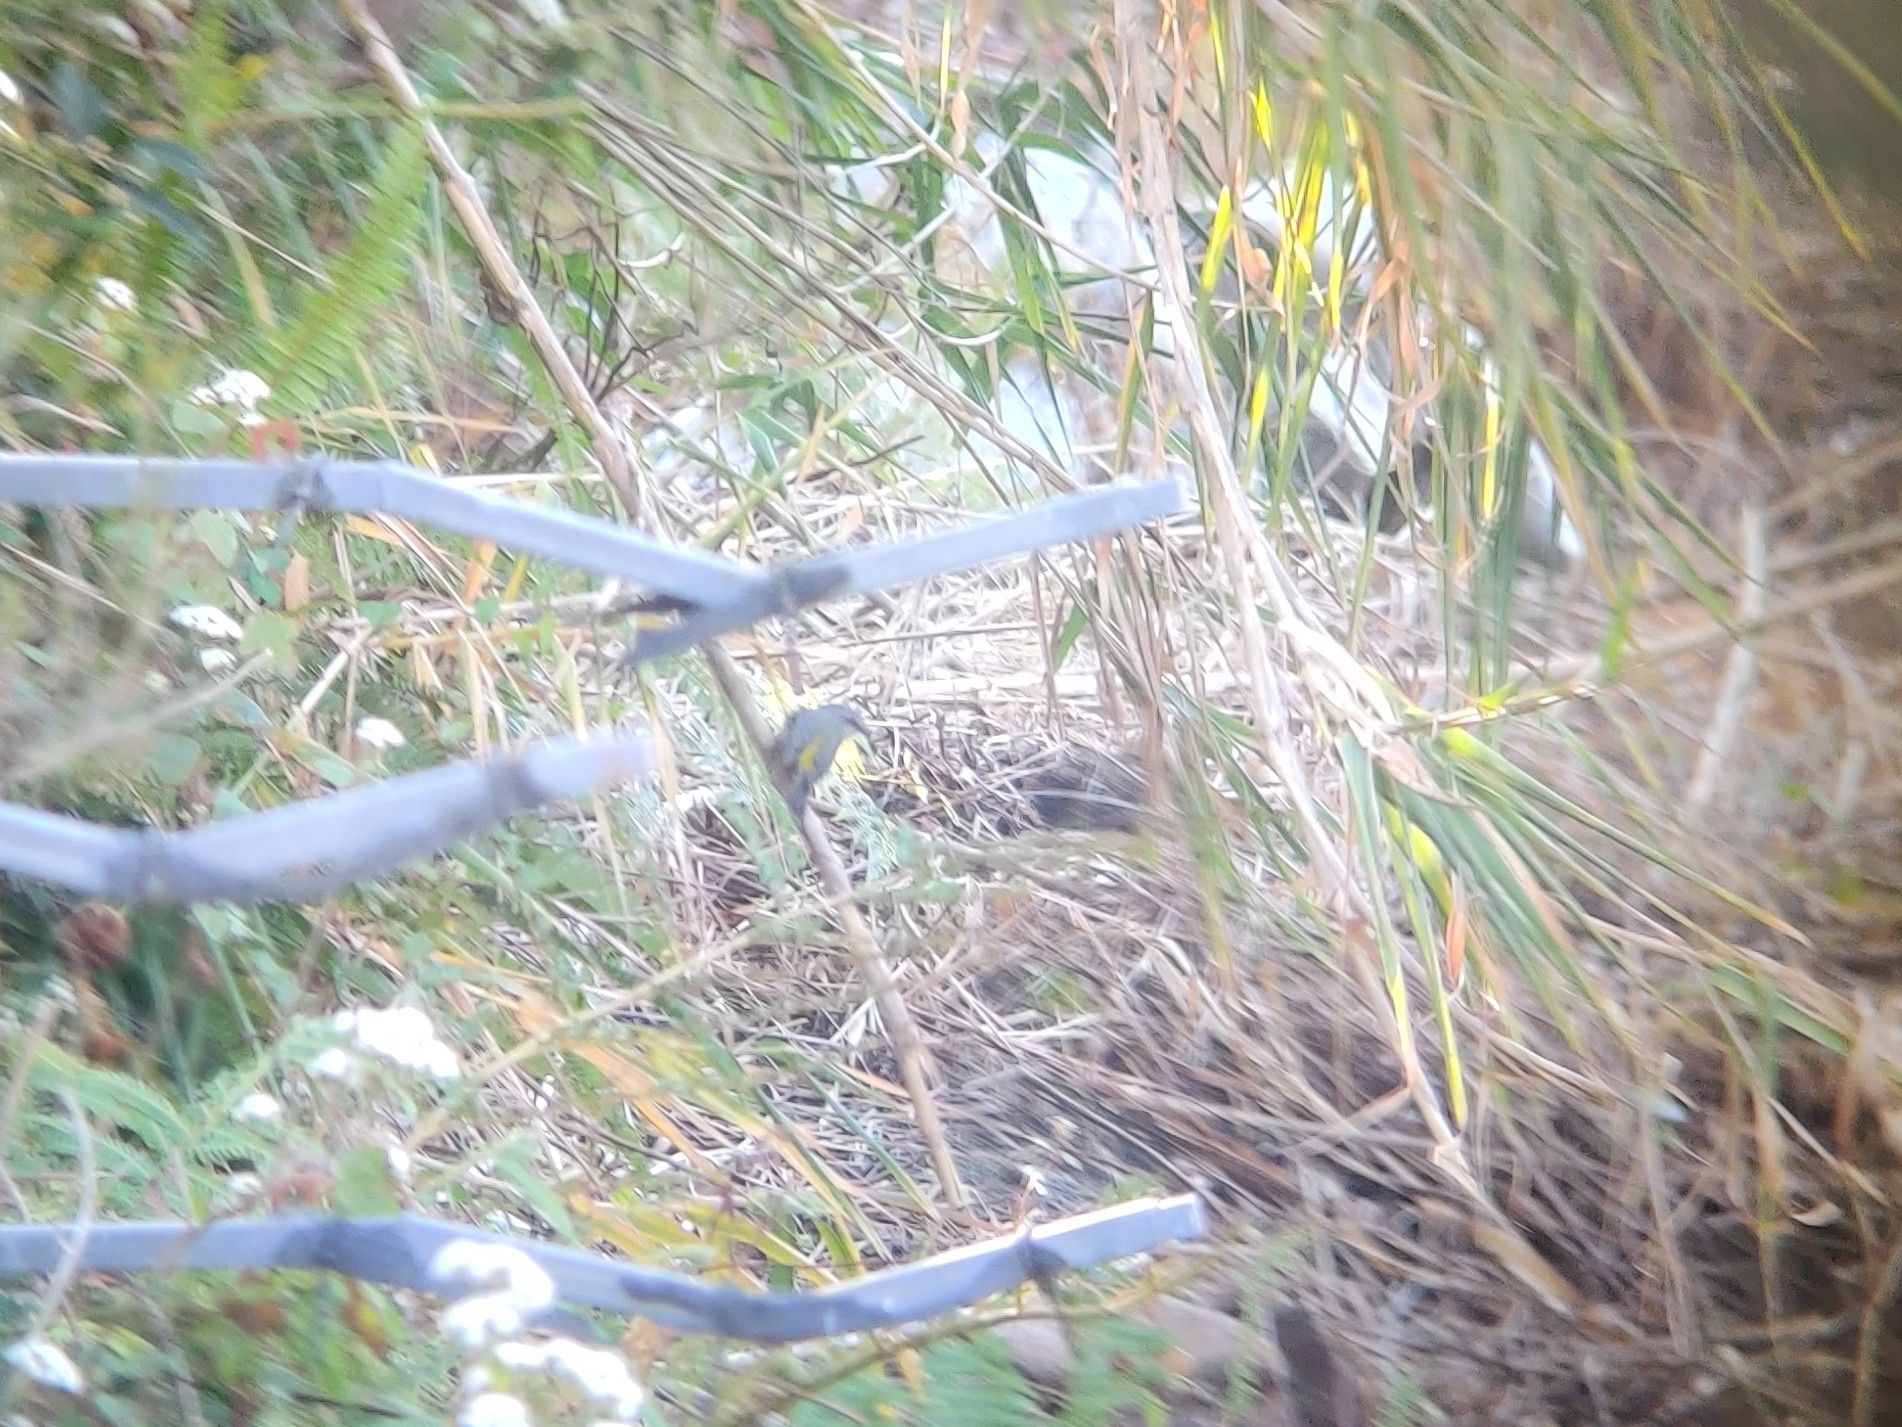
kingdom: Animalia
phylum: Chordata
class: Aves
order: Passeriformes
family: Petroicidae
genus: Eopsaltria
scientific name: Eopsaltria australis
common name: Eastern yellow robin
